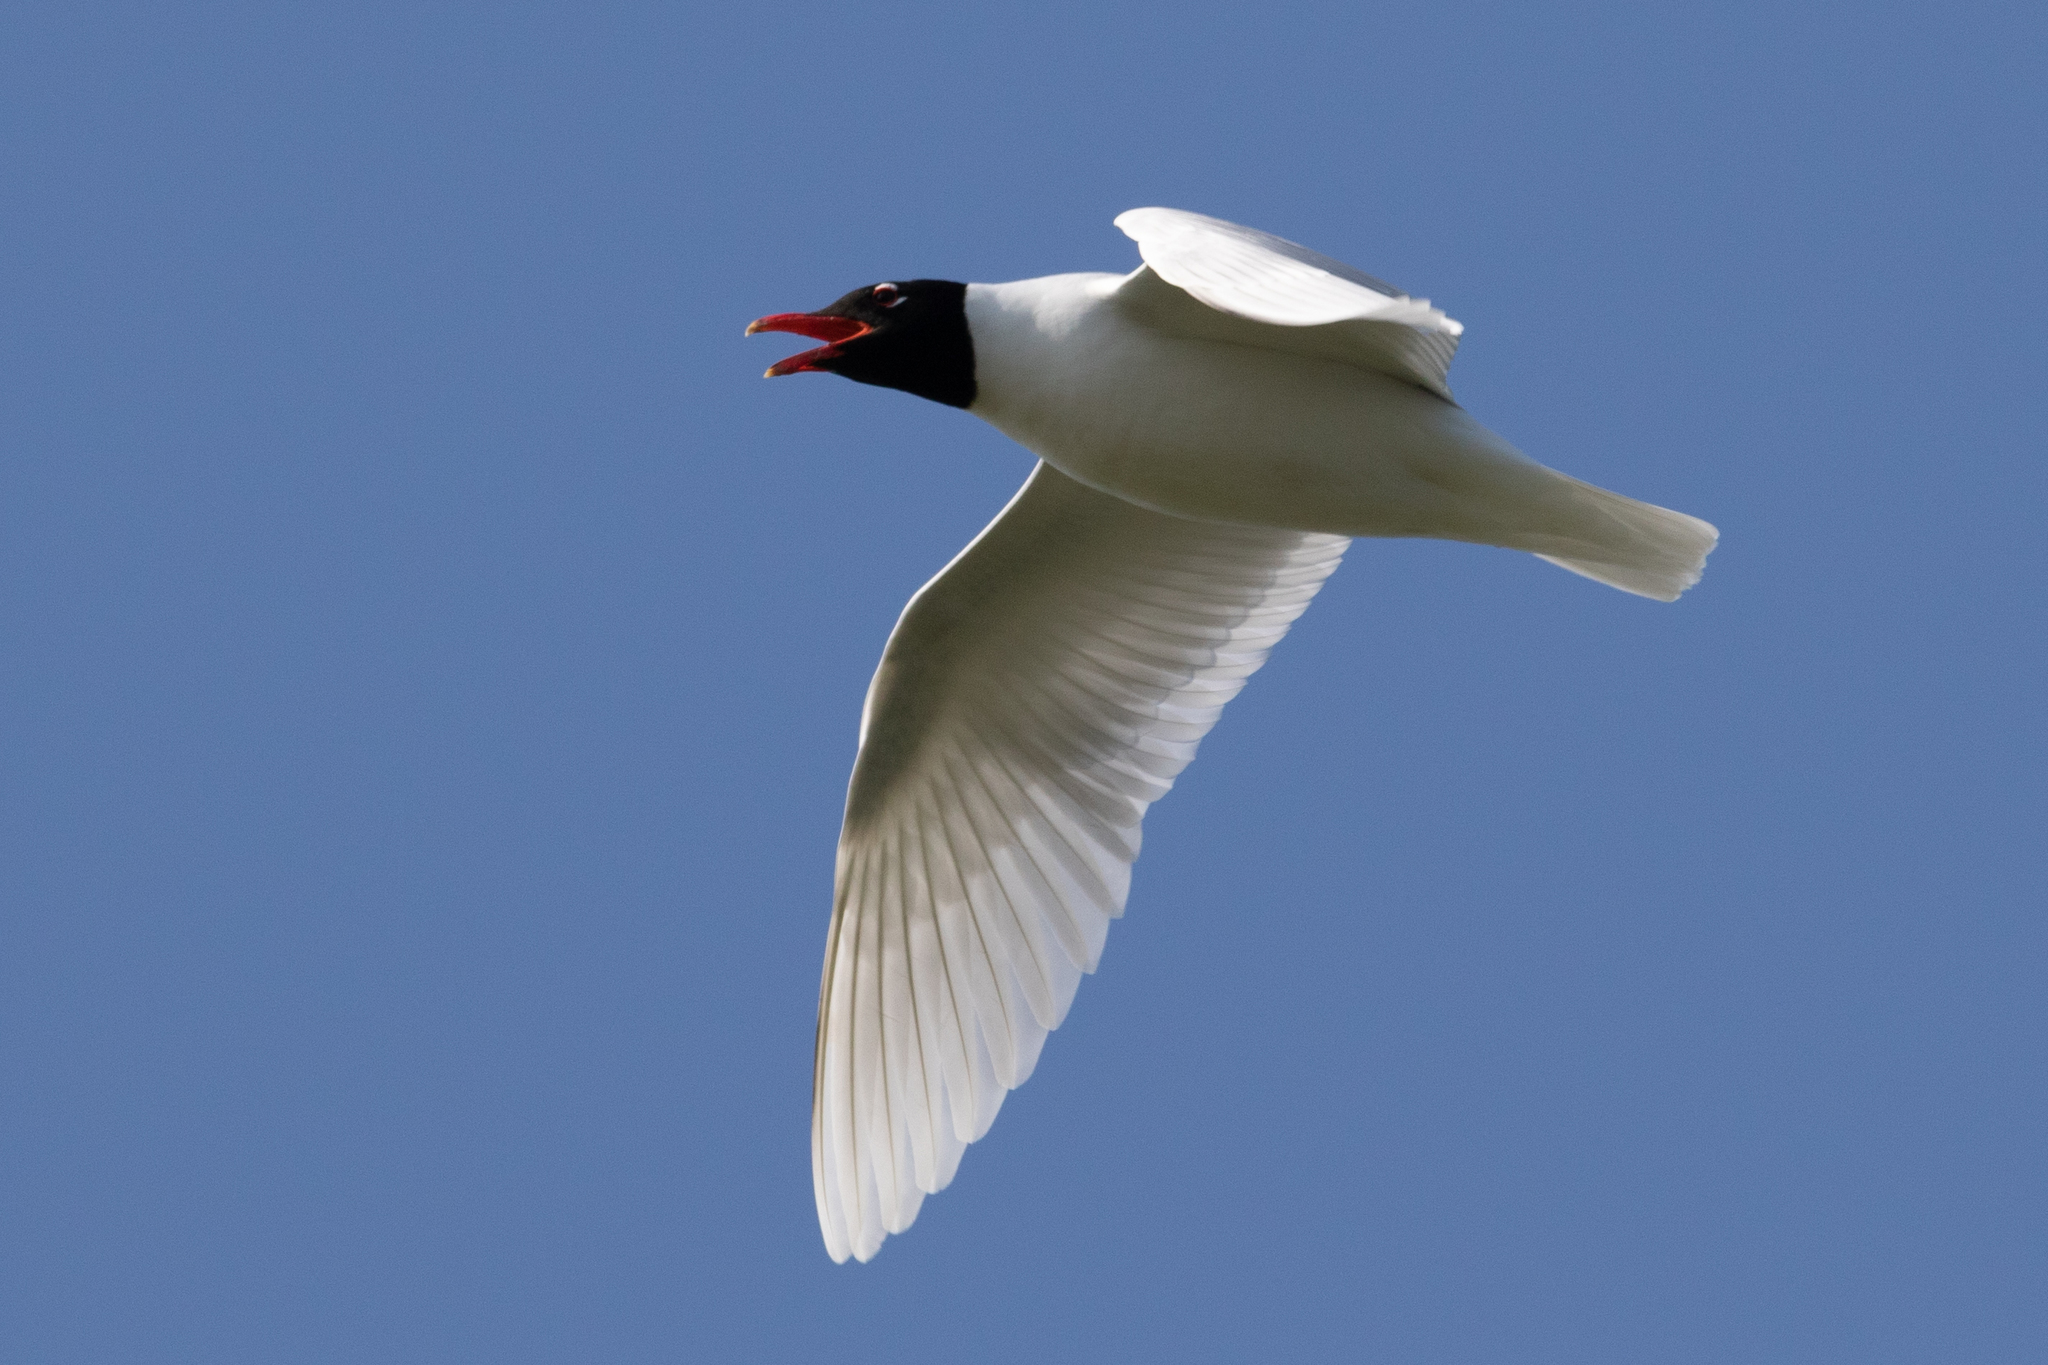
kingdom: Animalia
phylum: Chordata
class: Aves
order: Charadriiformes
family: Laridae
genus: Ichthyaetus
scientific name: Ichthyaetus melanocephalus
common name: Mediterranean gull
